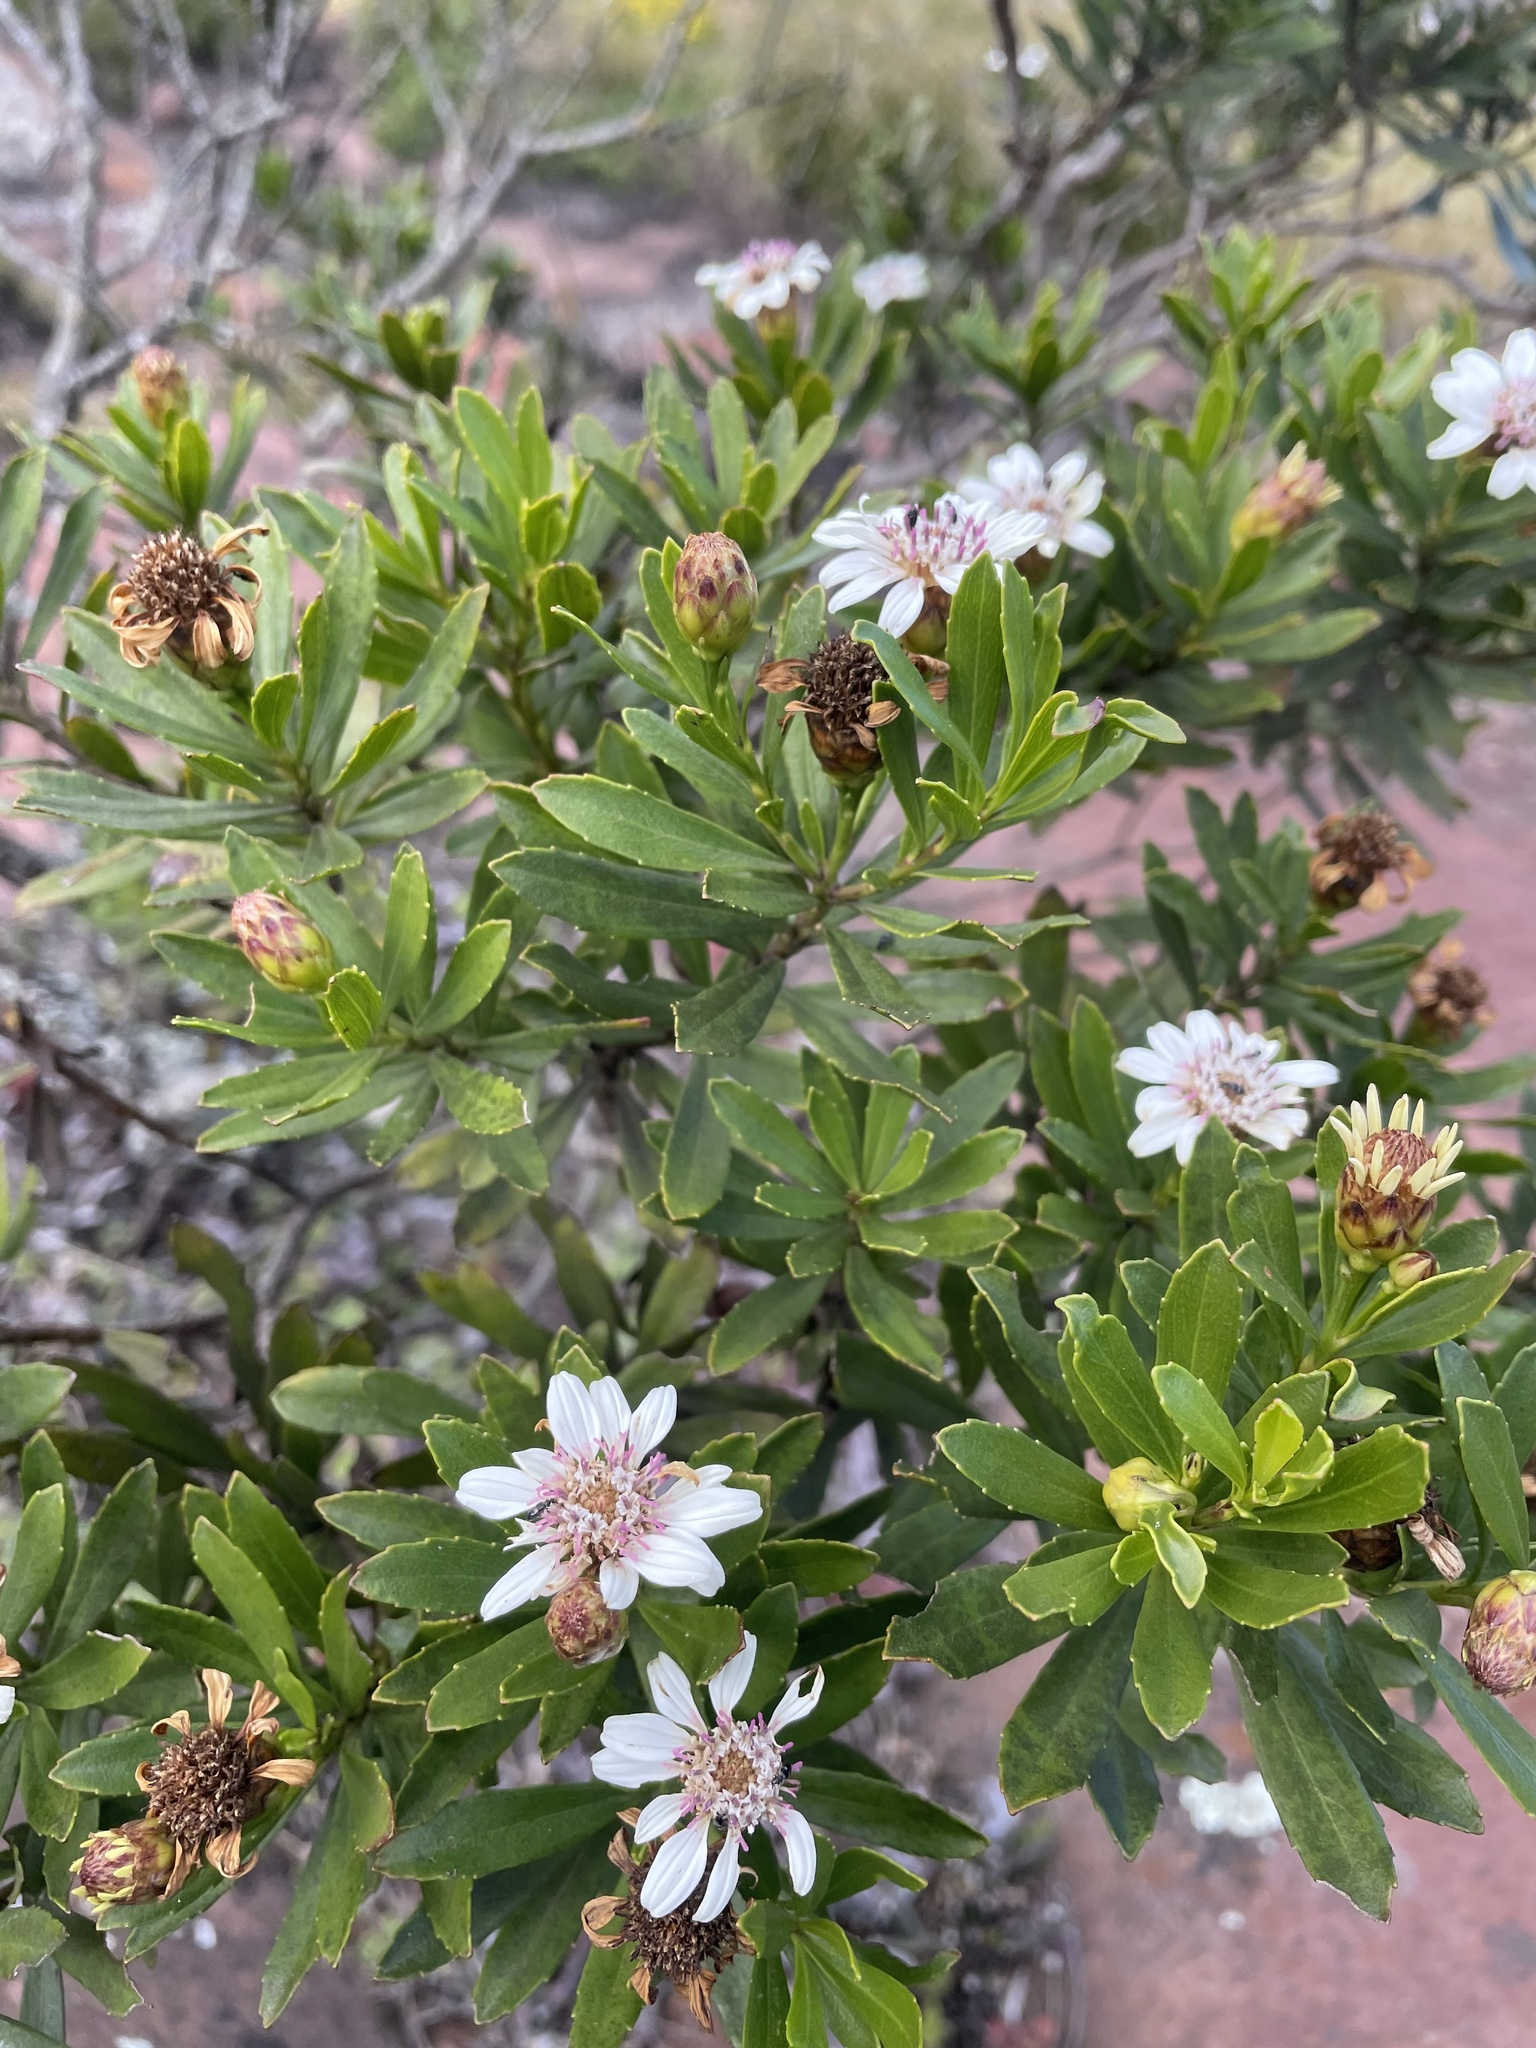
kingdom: Plantae
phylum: Tracheophyta
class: Magnoliopsida
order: Asterales
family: Asteraceae
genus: Callilepis
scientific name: Callilepis caerulea
